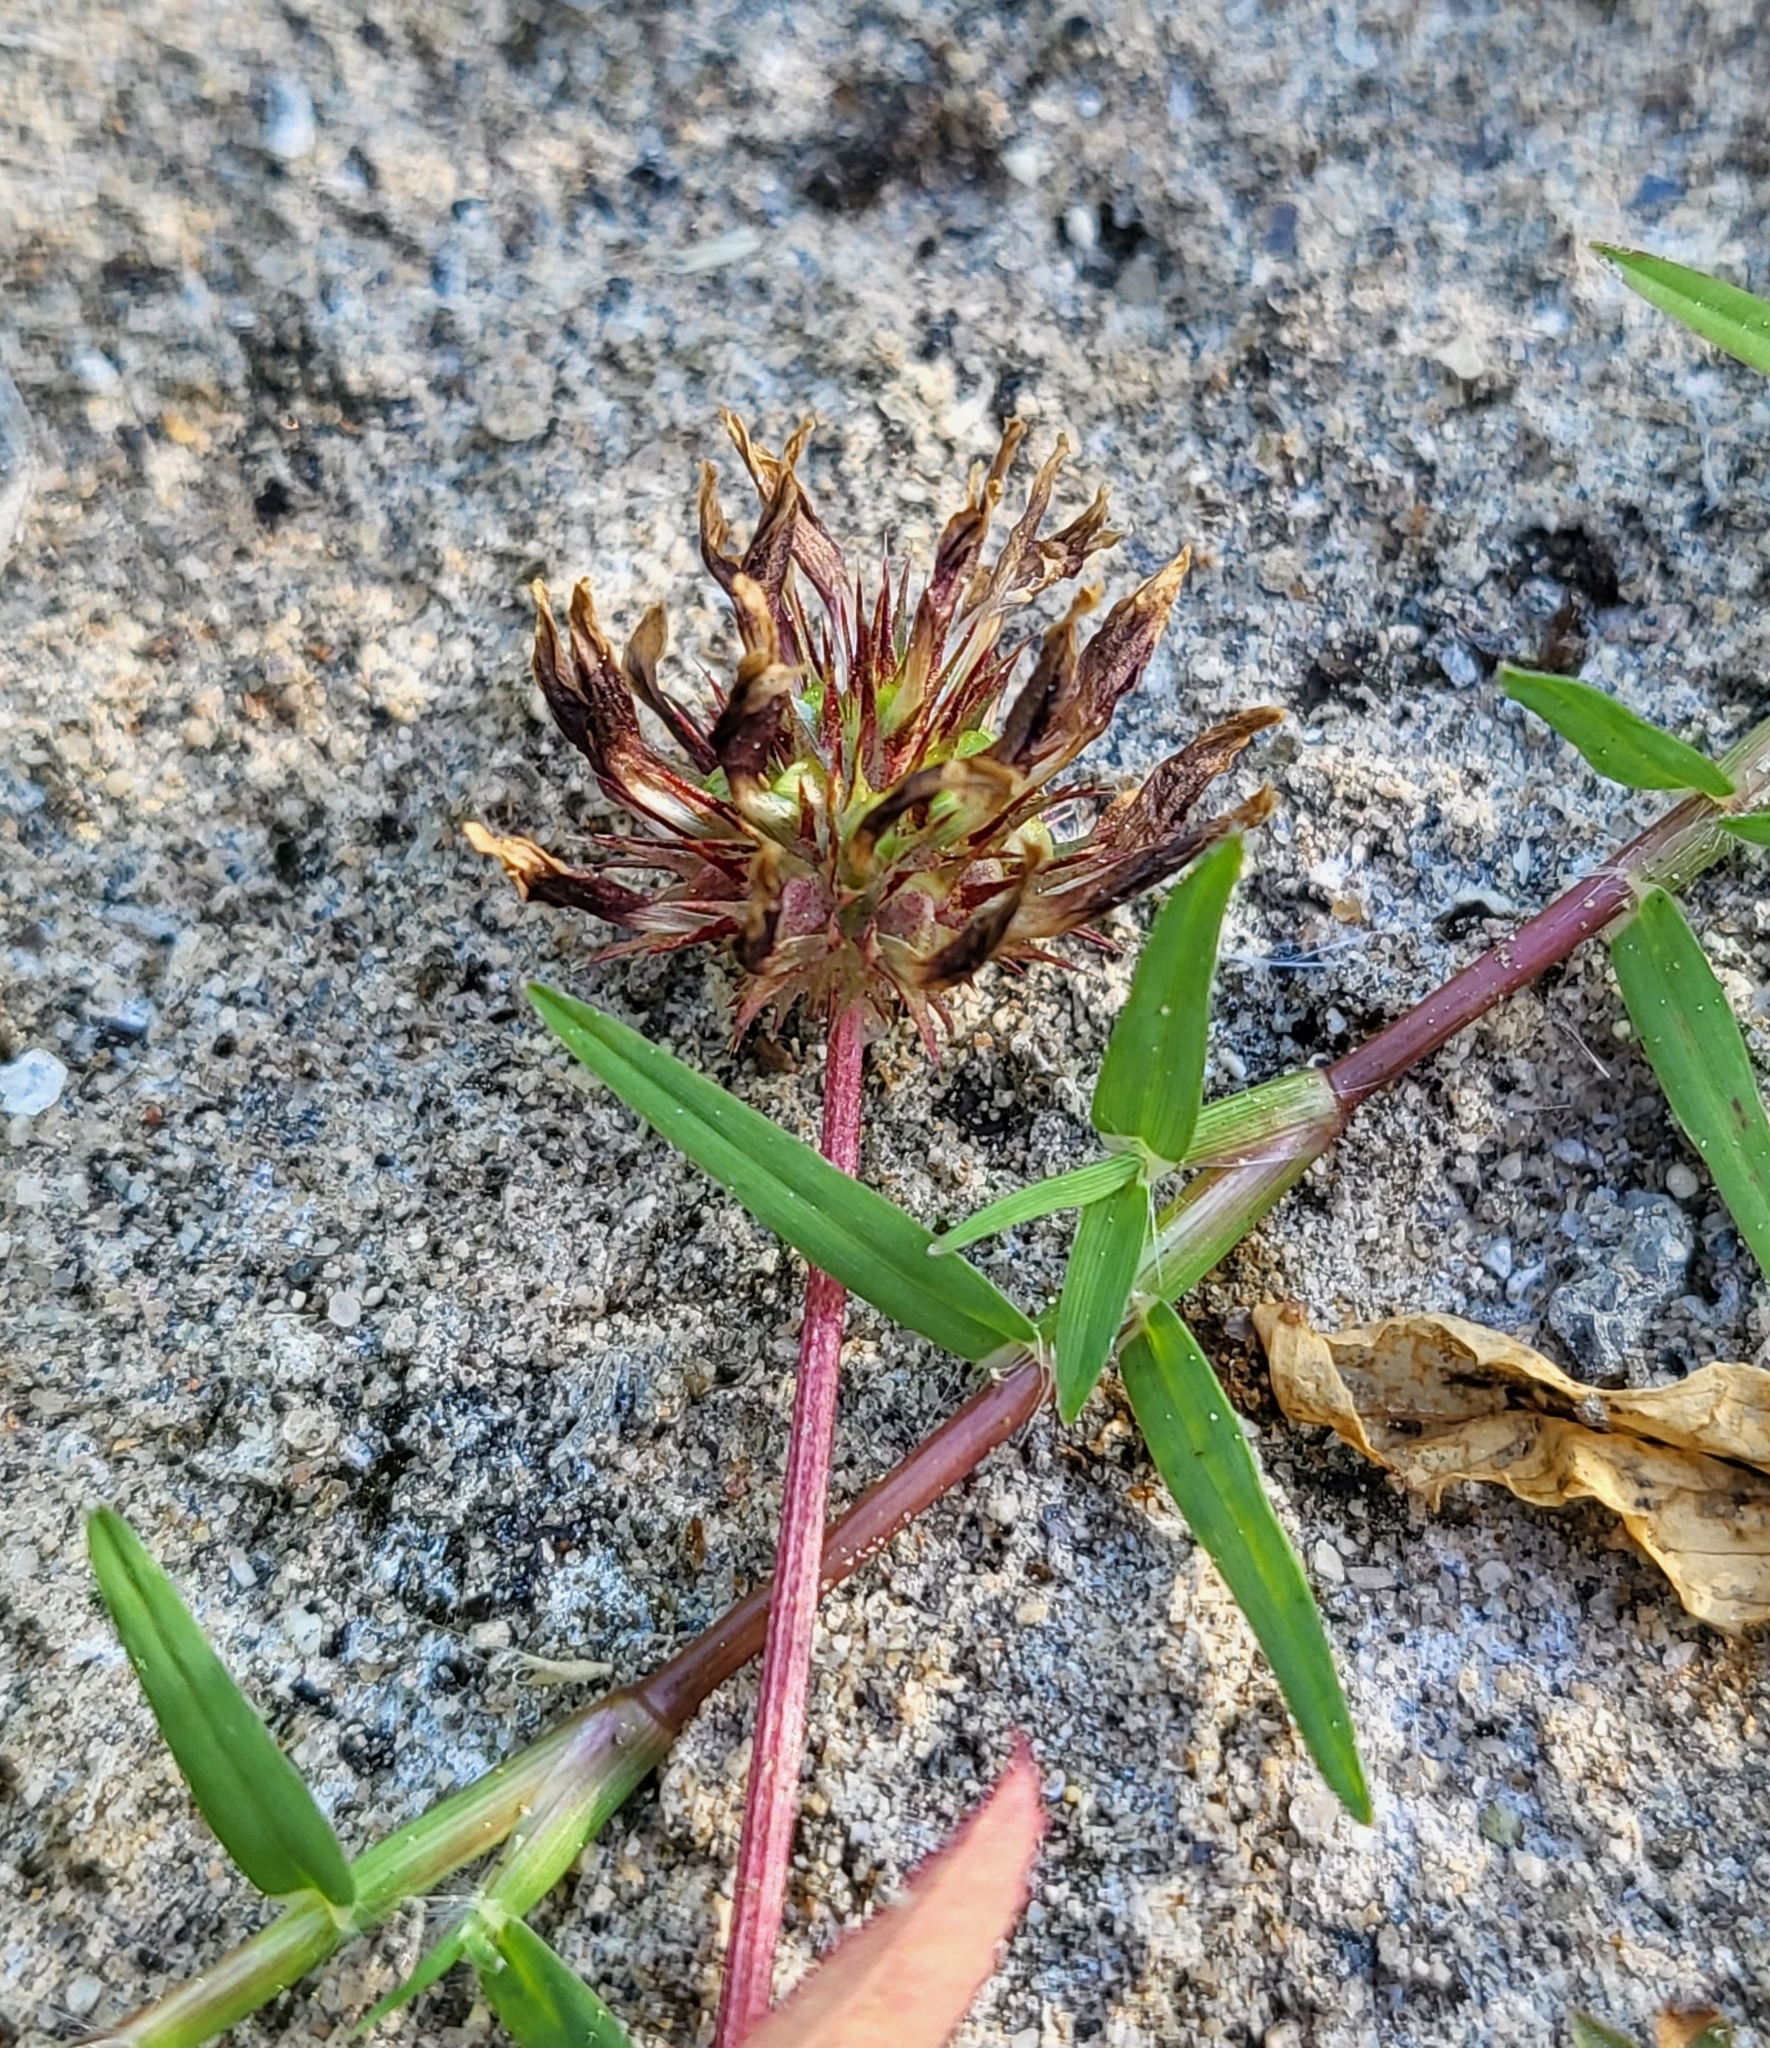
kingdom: Plantae
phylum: Tracheophyta
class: Magnoliopsida
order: Fabales
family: Fabaceae
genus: Trifolium
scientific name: Trifolium variegatum
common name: Whitetip clover
